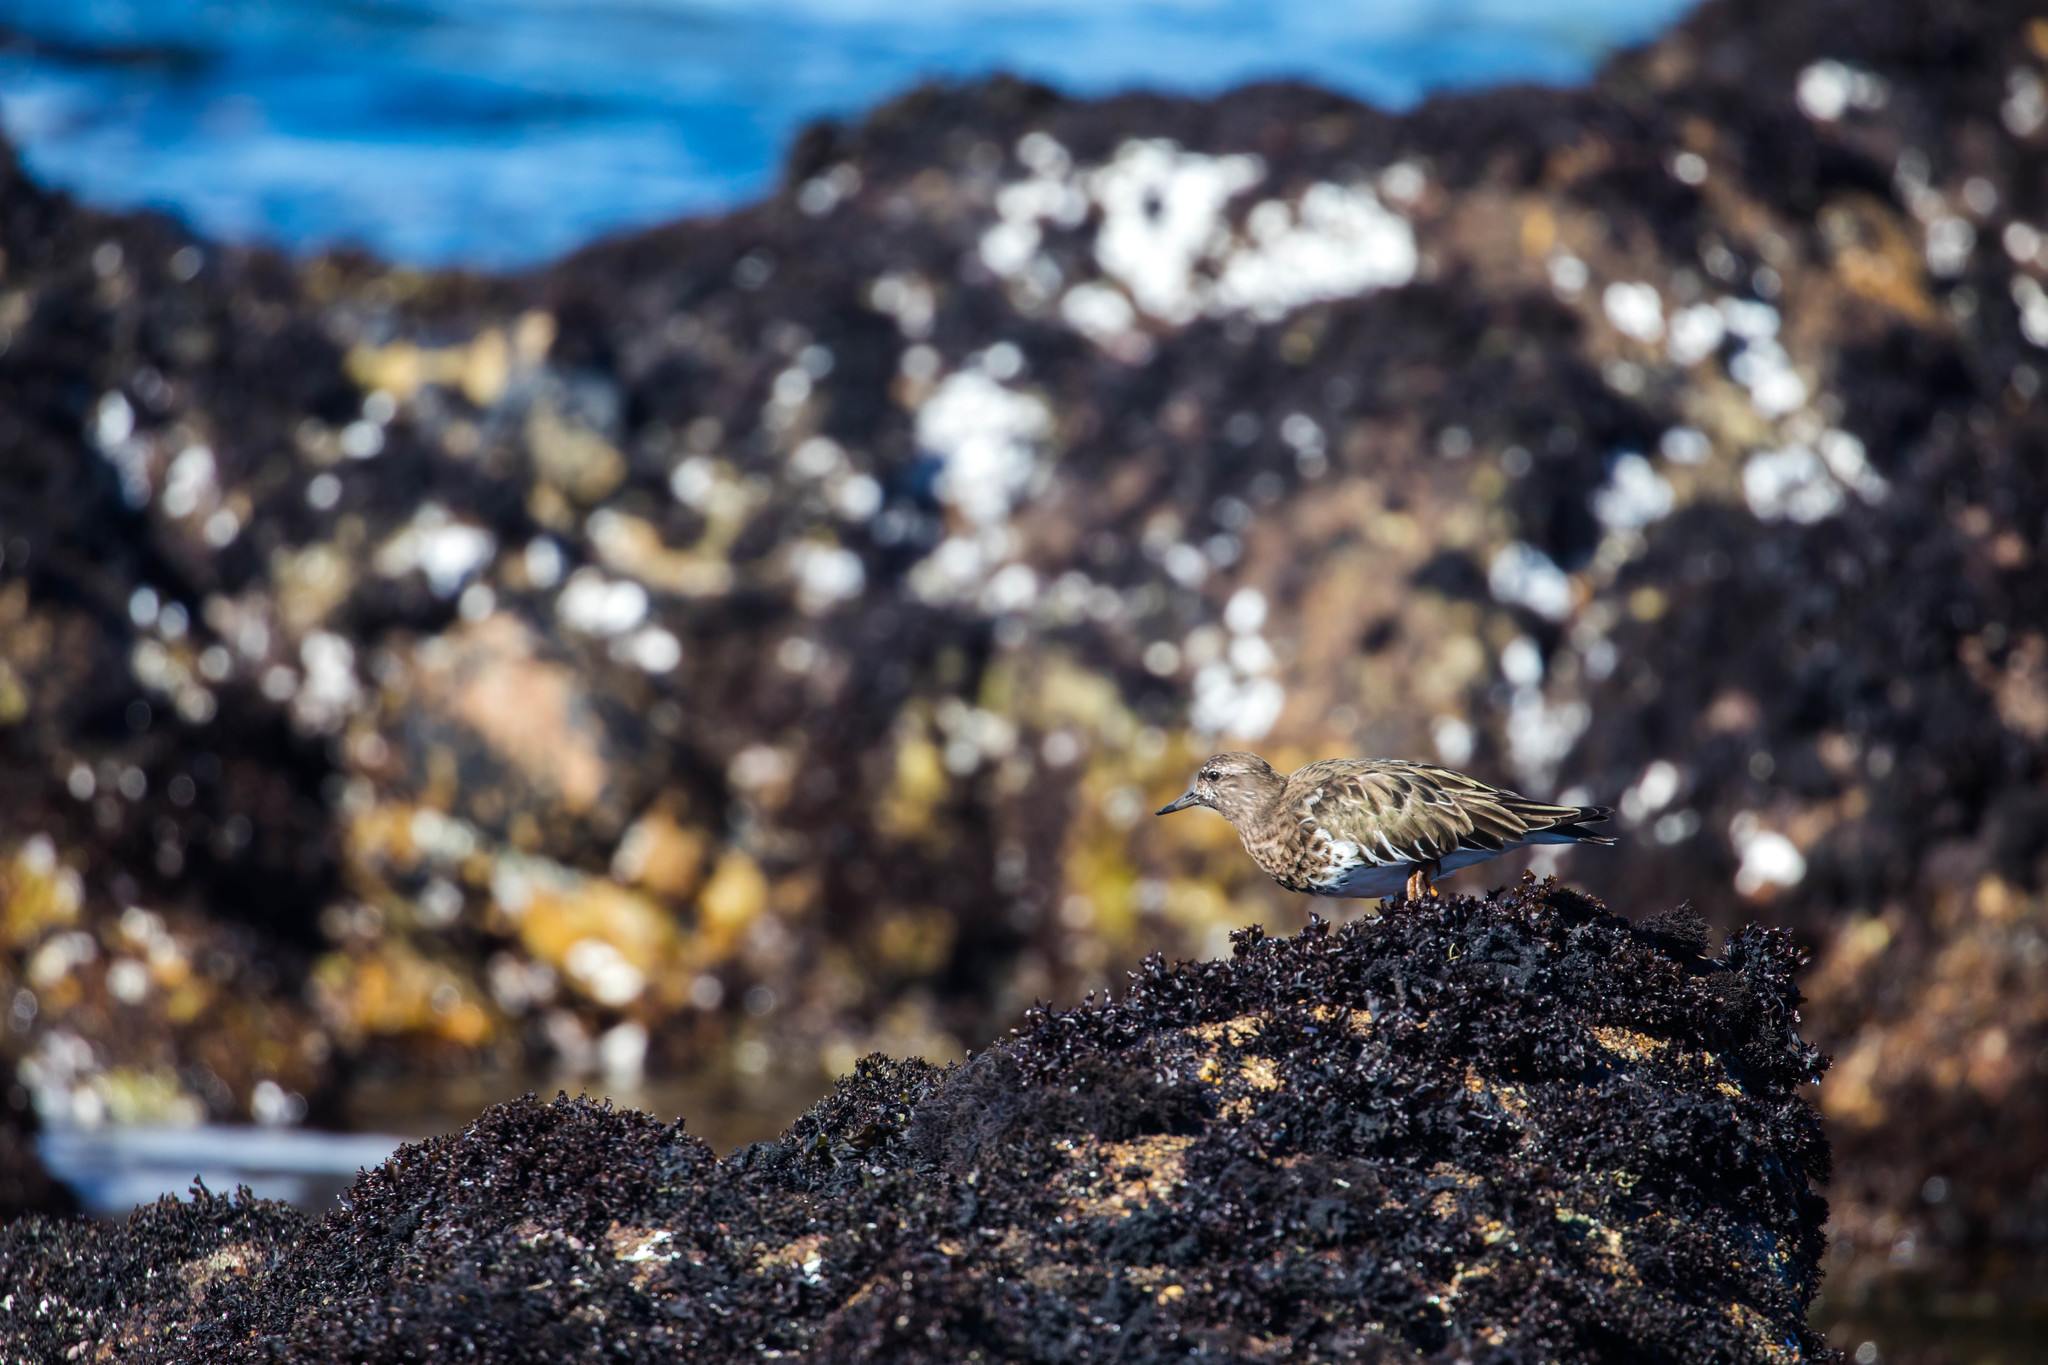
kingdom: Animalia
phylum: Chordata
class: Aves
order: Charadriiformes
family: Scolopacidae
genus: Arenaria
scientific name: Arenaria melanocephala
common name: Black turnstone
